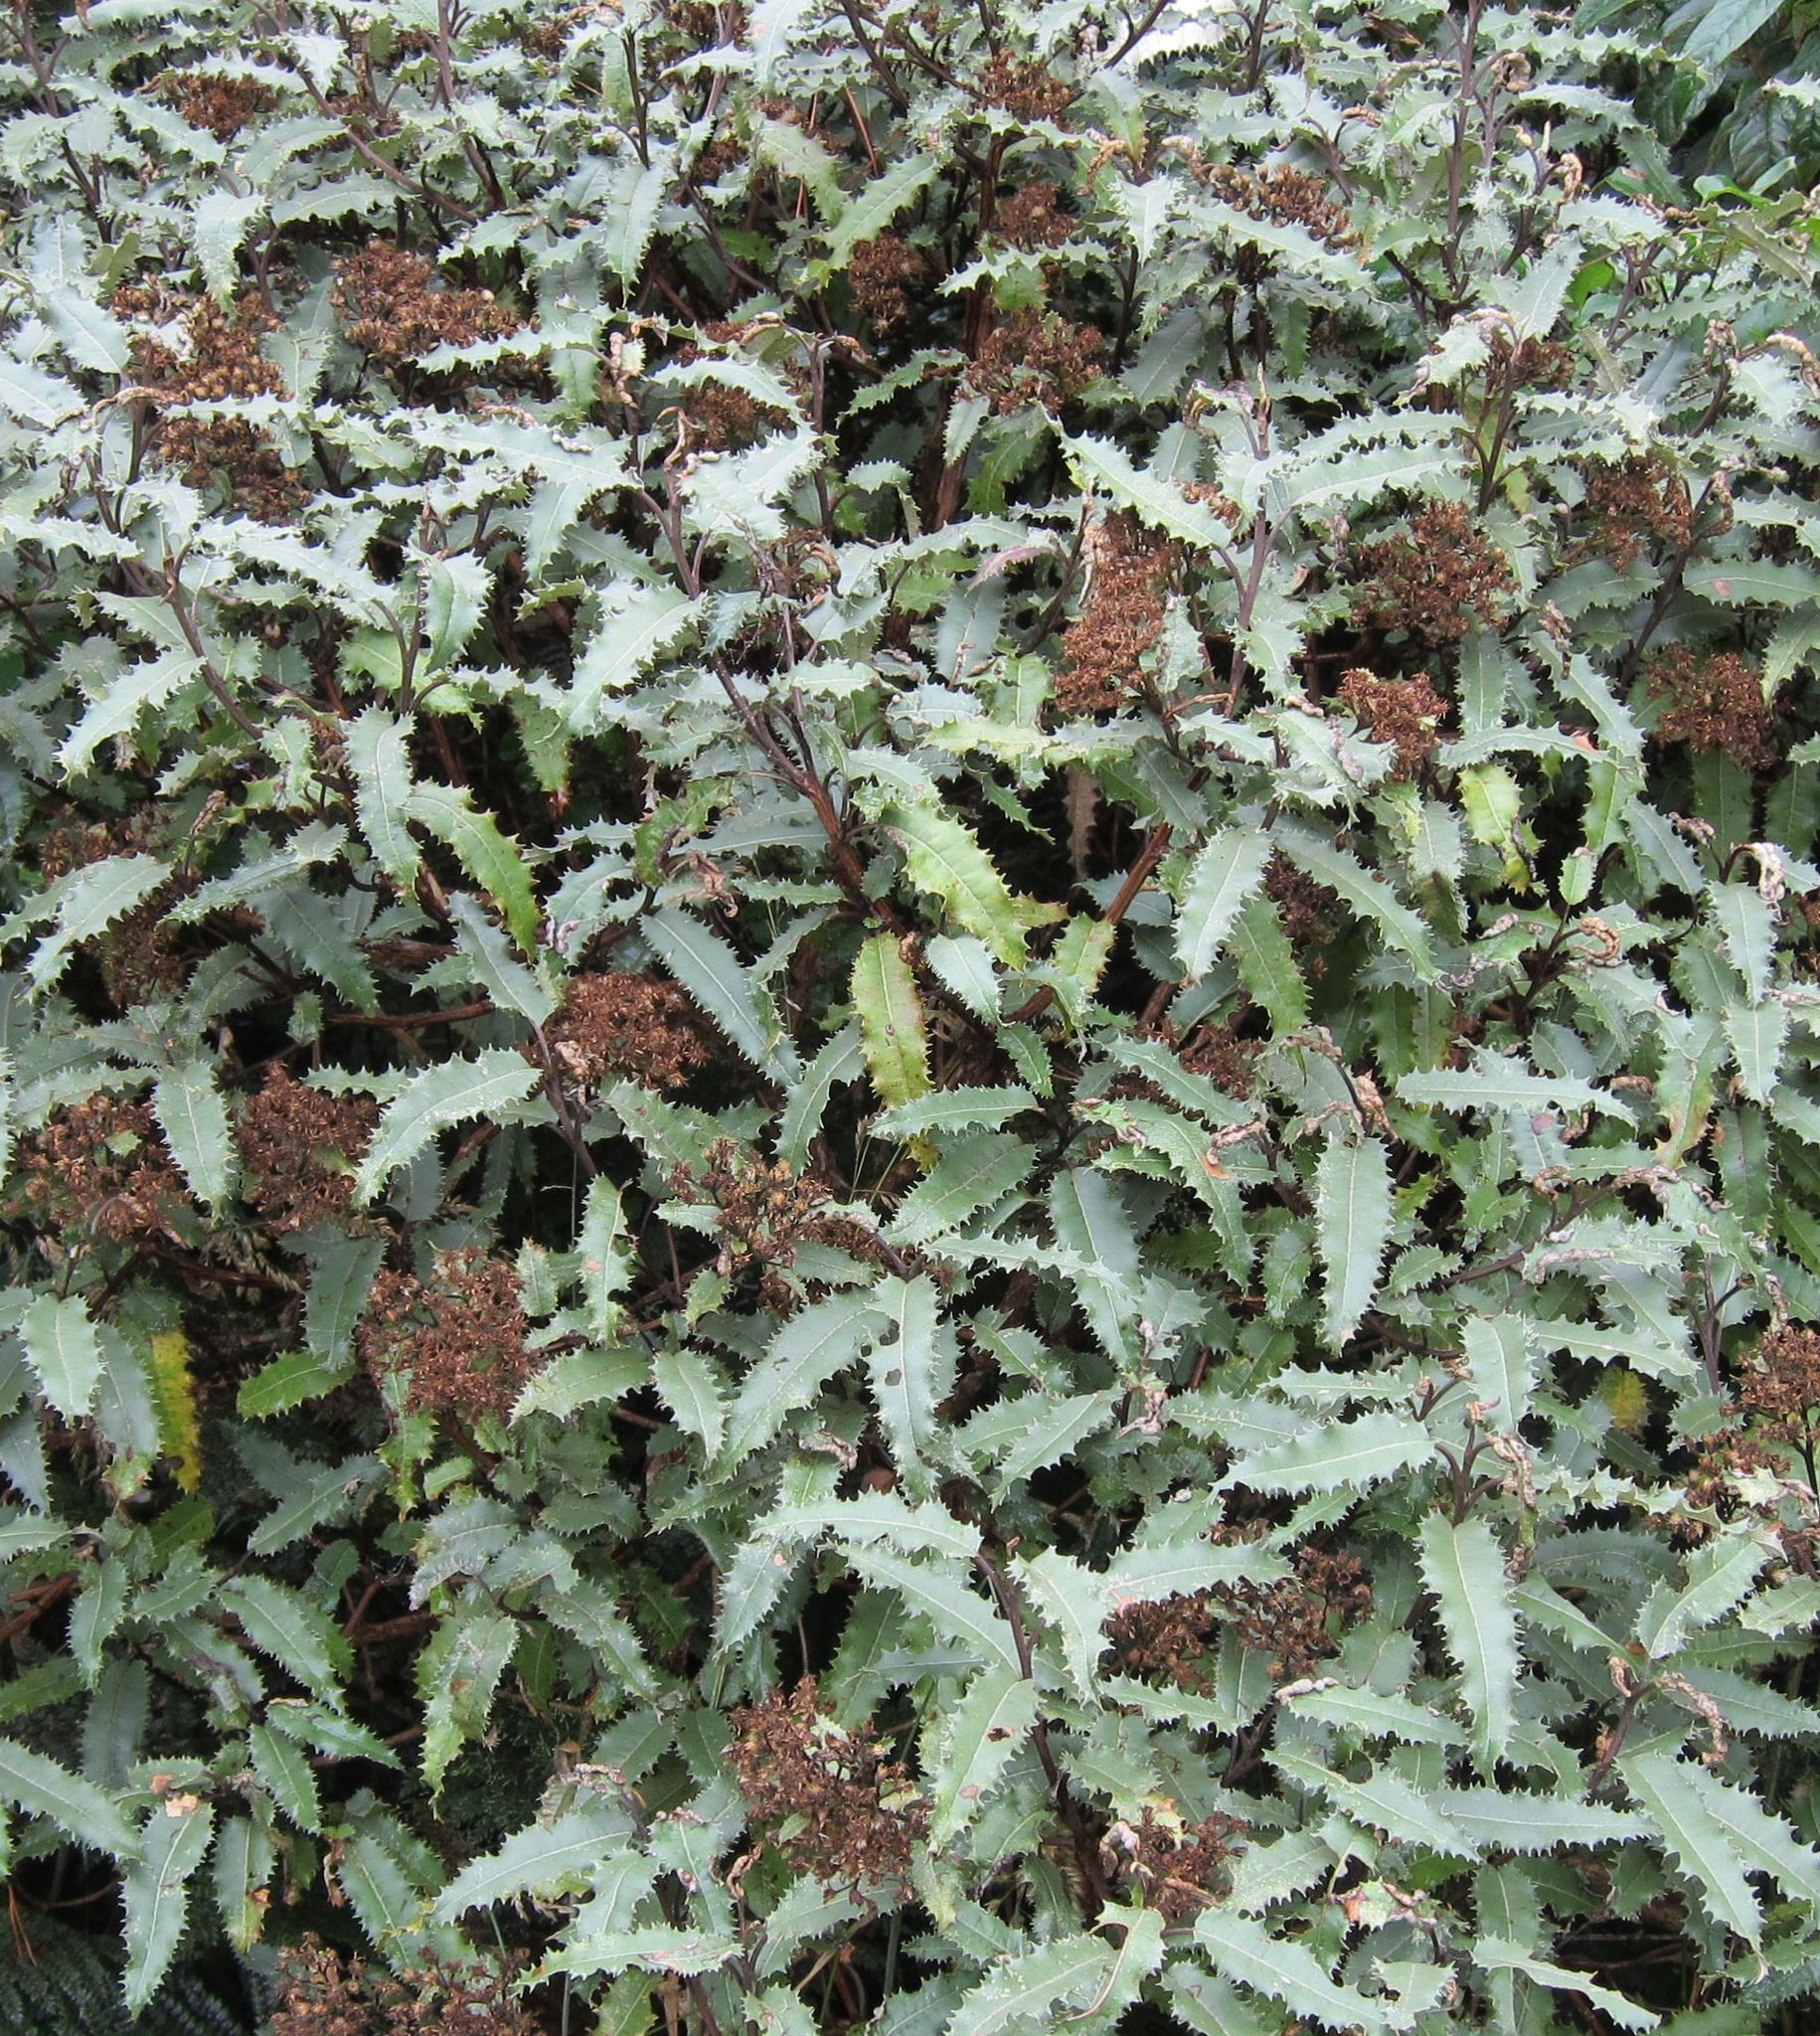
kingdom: Plantae
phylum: Tracheophyta
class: Magnoliopsida
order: Asterales
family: Asteraceae
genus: Olearia
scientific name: Olearia ilicifolia
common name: Maori-holly
